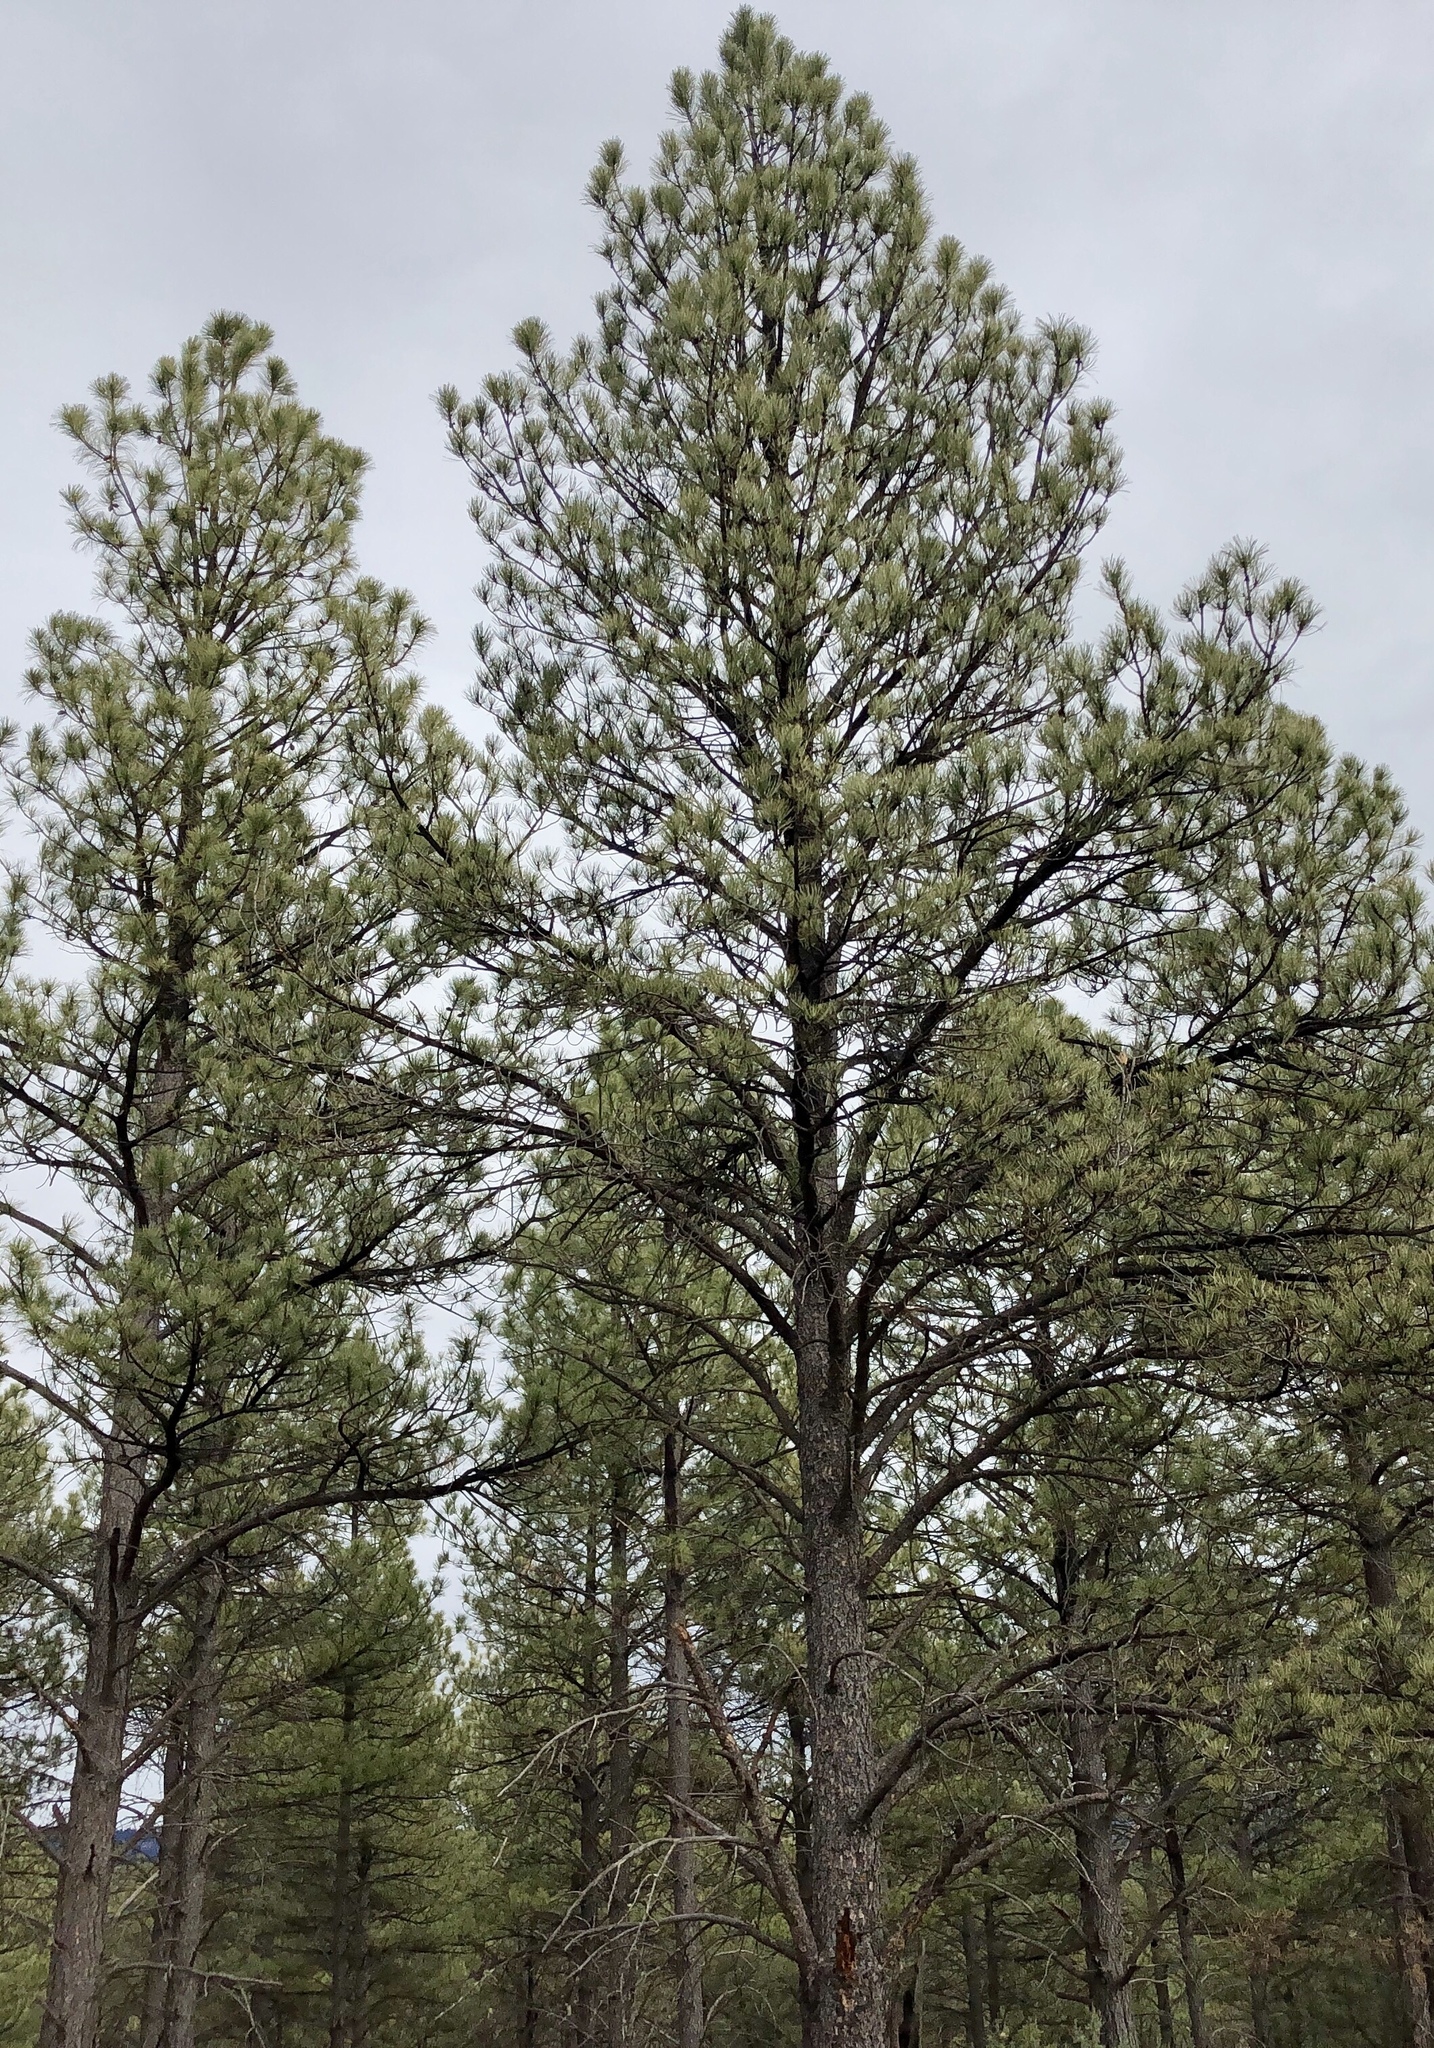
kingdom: Plantae
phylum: Tracheophyta
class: Pinopsida
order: Pinales
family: Pinaceae
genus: Pinus
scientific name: Pinus ponderosa
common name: Western yellow-pine
